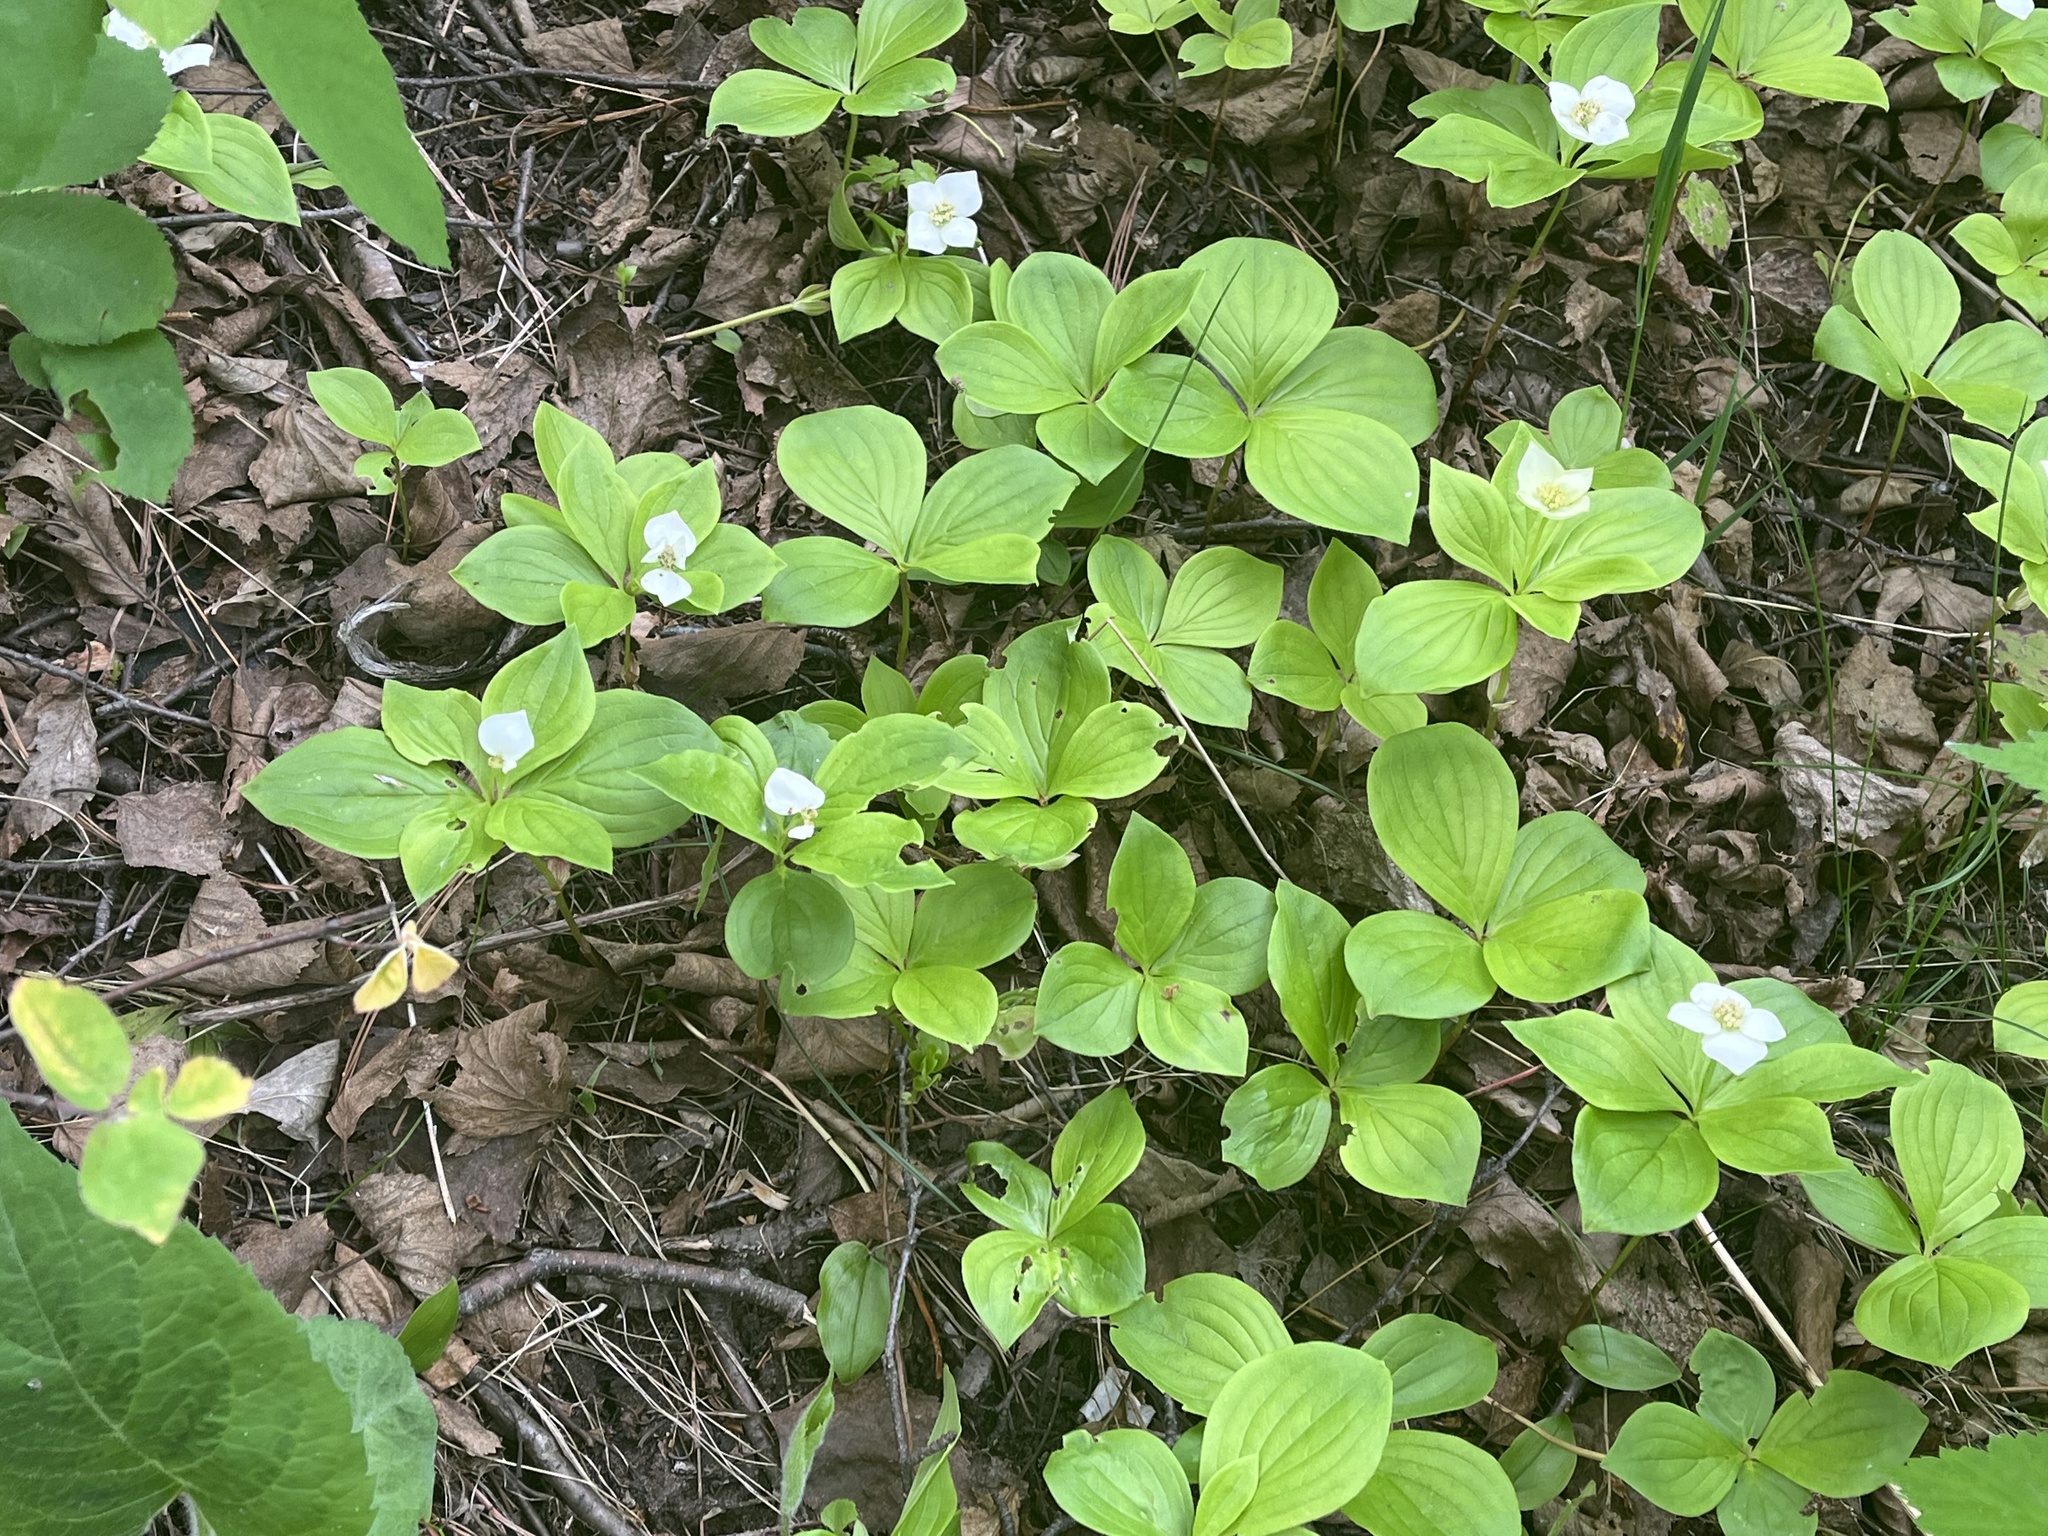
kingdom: Plantae
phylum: Tracheophyta
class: Magnoliopsida
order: Cornales
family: Cornaceae
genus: Cornus
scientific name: Cornus canadensis
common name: Creeping dogwood
